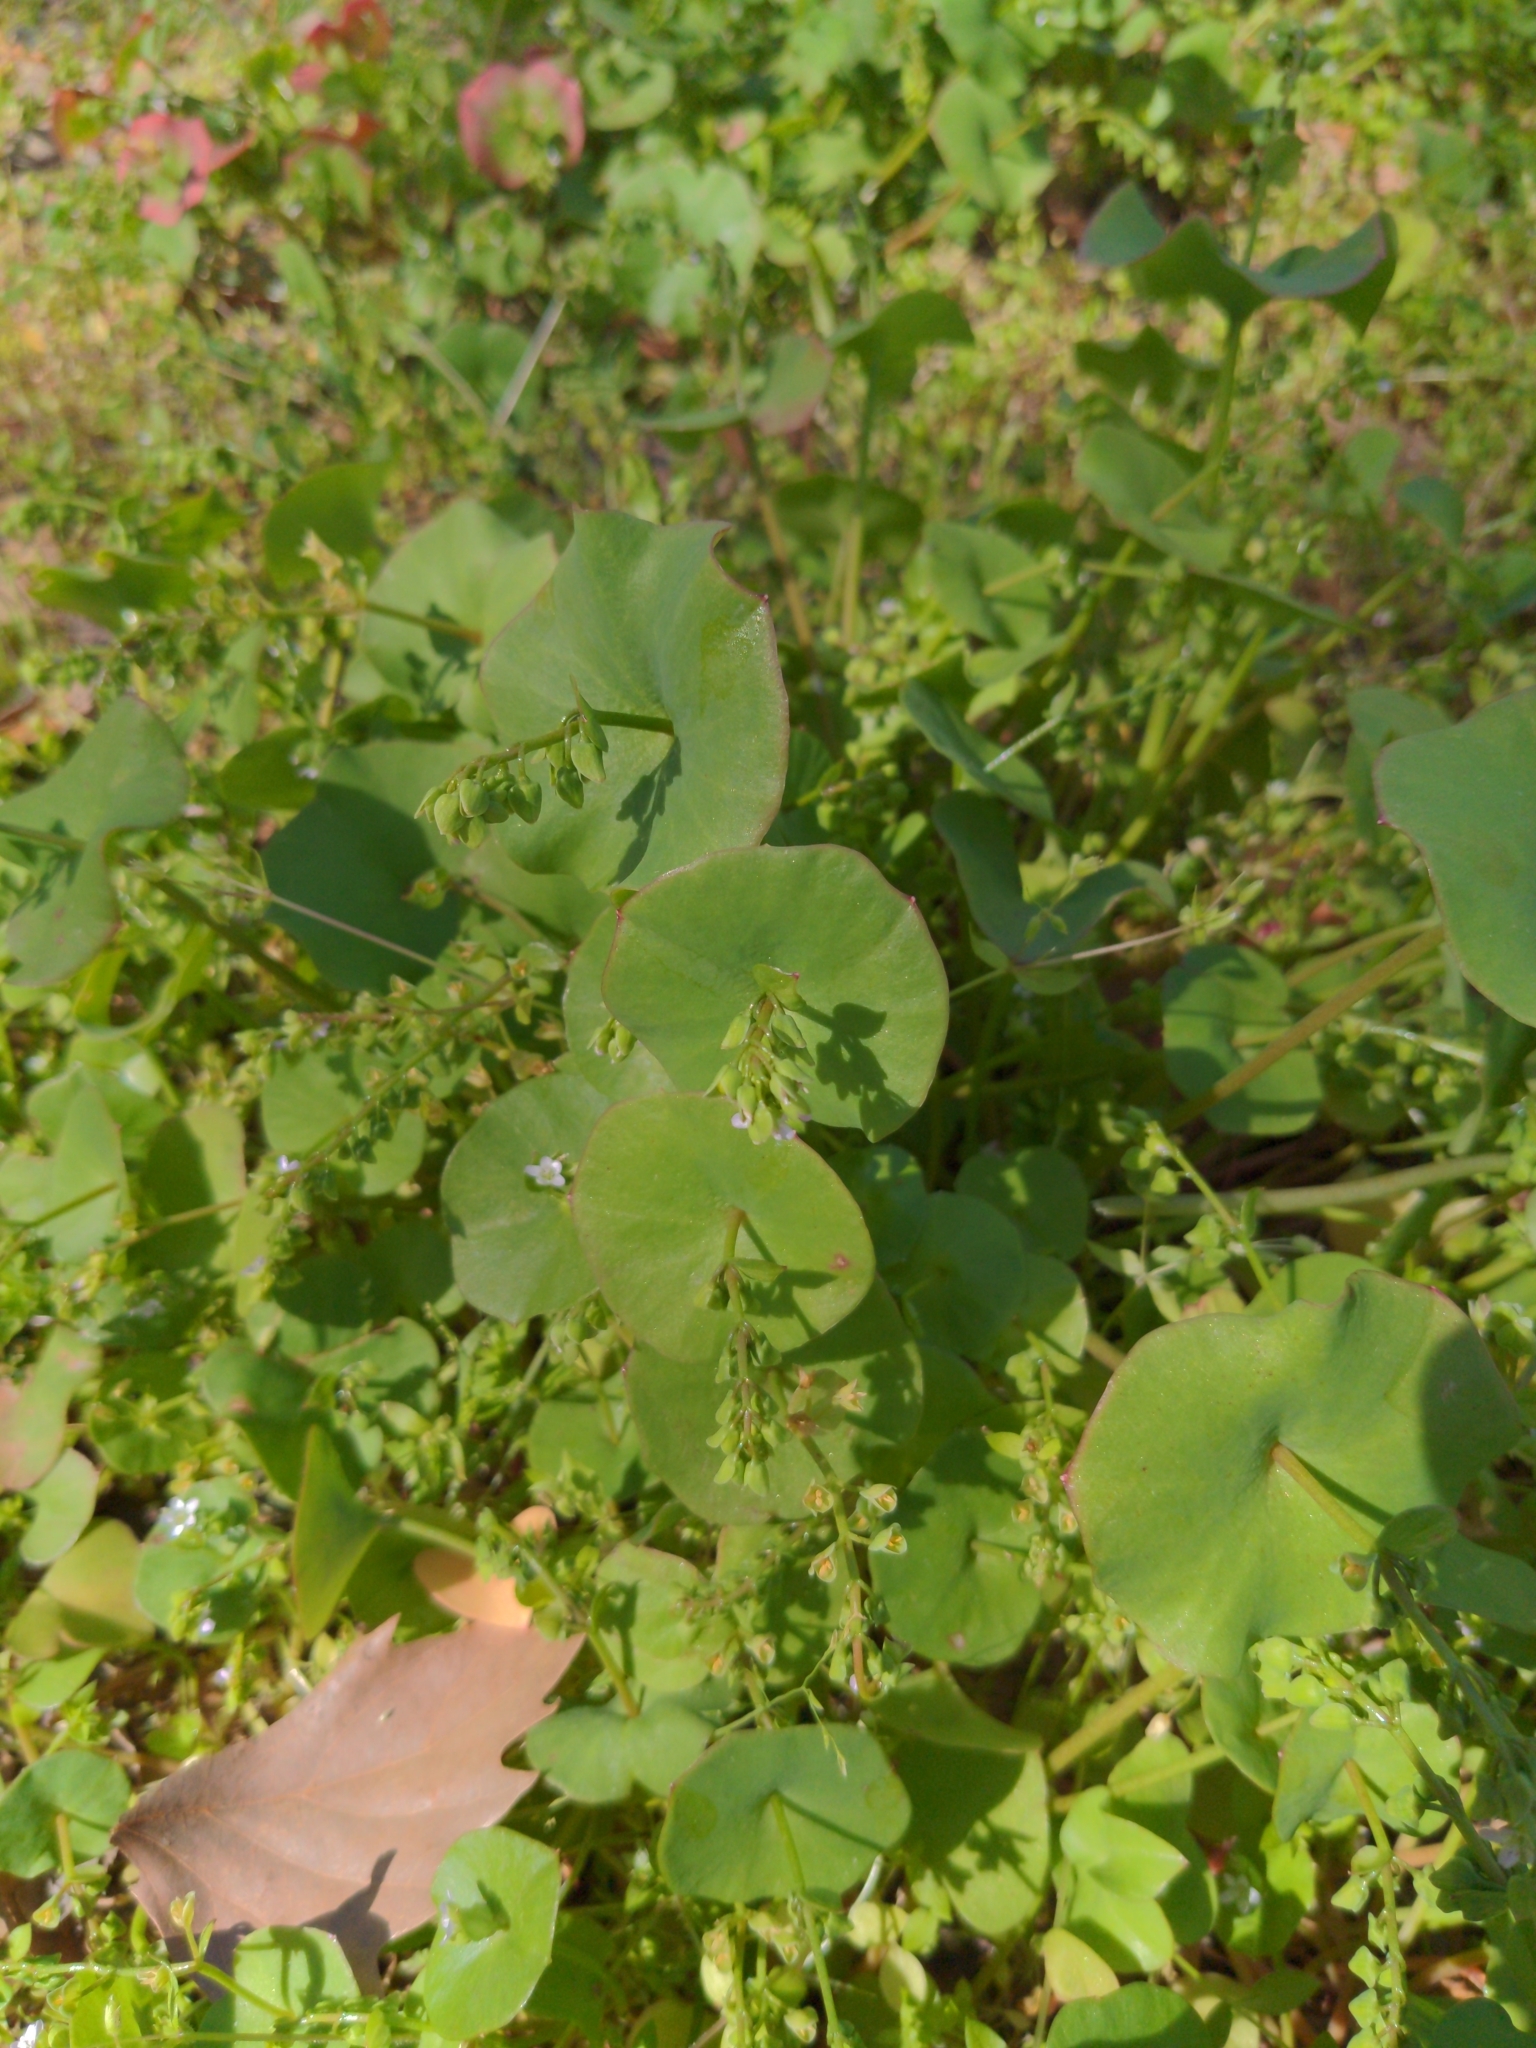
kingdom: Plantae
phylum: Tracheophyta
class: Magnoliopsida
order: Caryophyllales
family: Montiaceae
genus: Claytonia
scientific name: Claytonia perfoliata
